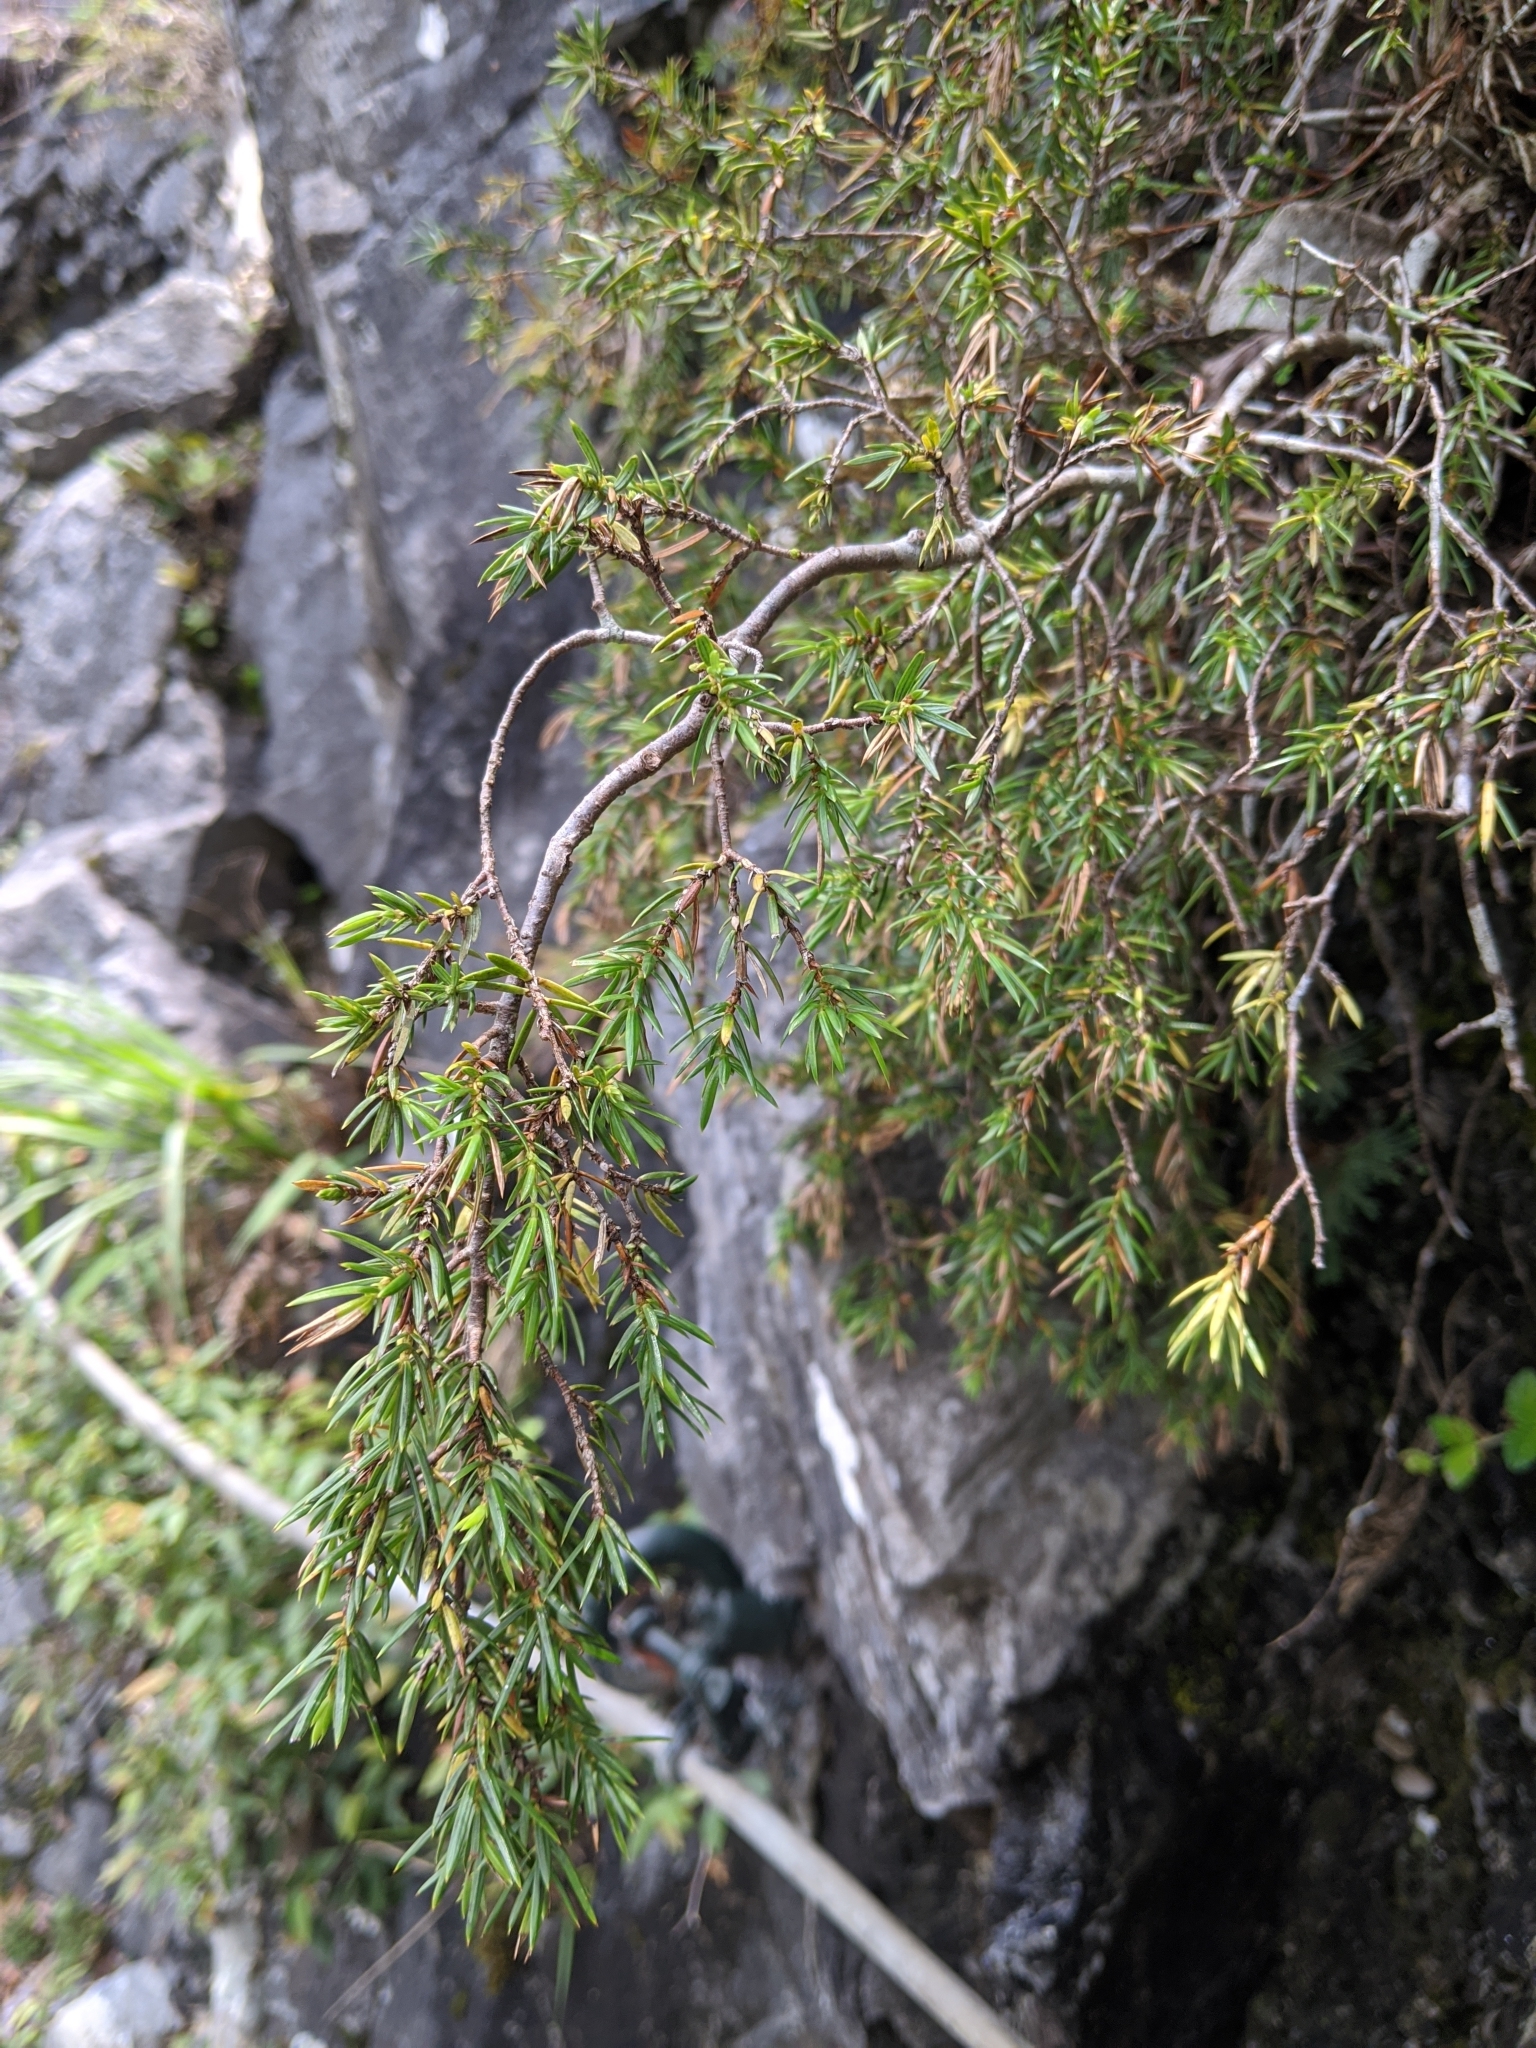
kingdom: Plantae
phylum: Tracheophyta
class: Pinopsida
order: Pinales
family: Cupressaceae
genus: Juniperus
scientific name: Juniperus formosana
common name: Formosan juniper
